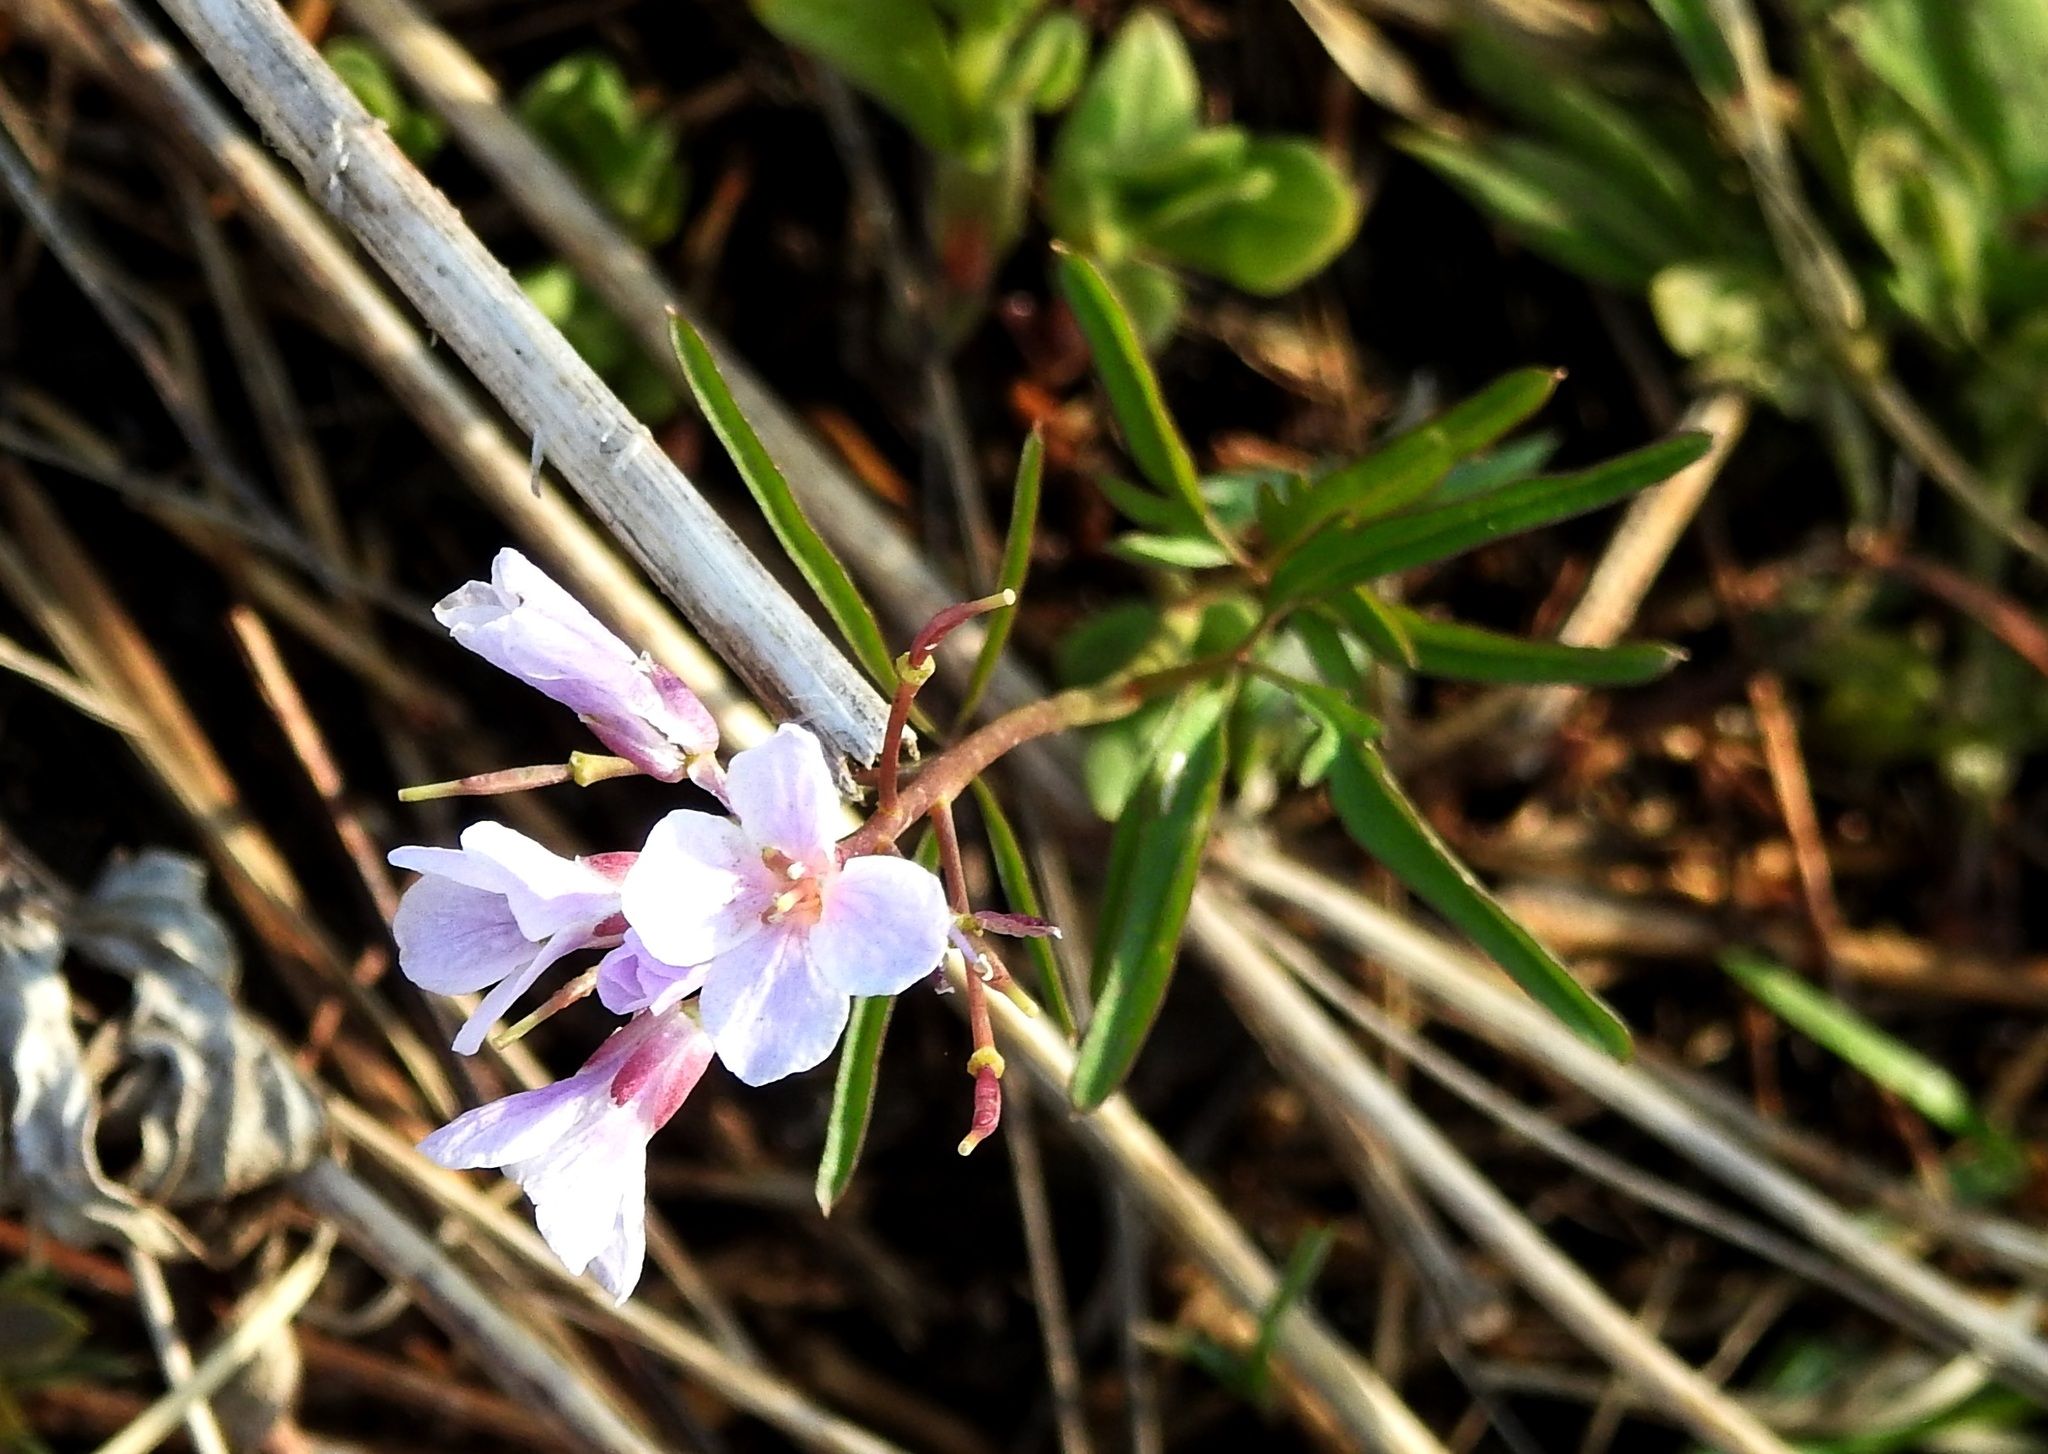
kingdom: Plantae
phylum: Tracheophyta
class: Magnoliopsida
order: Brassicales
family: Brassicaceae
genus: Cardamine
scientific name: Cardamine trifida
